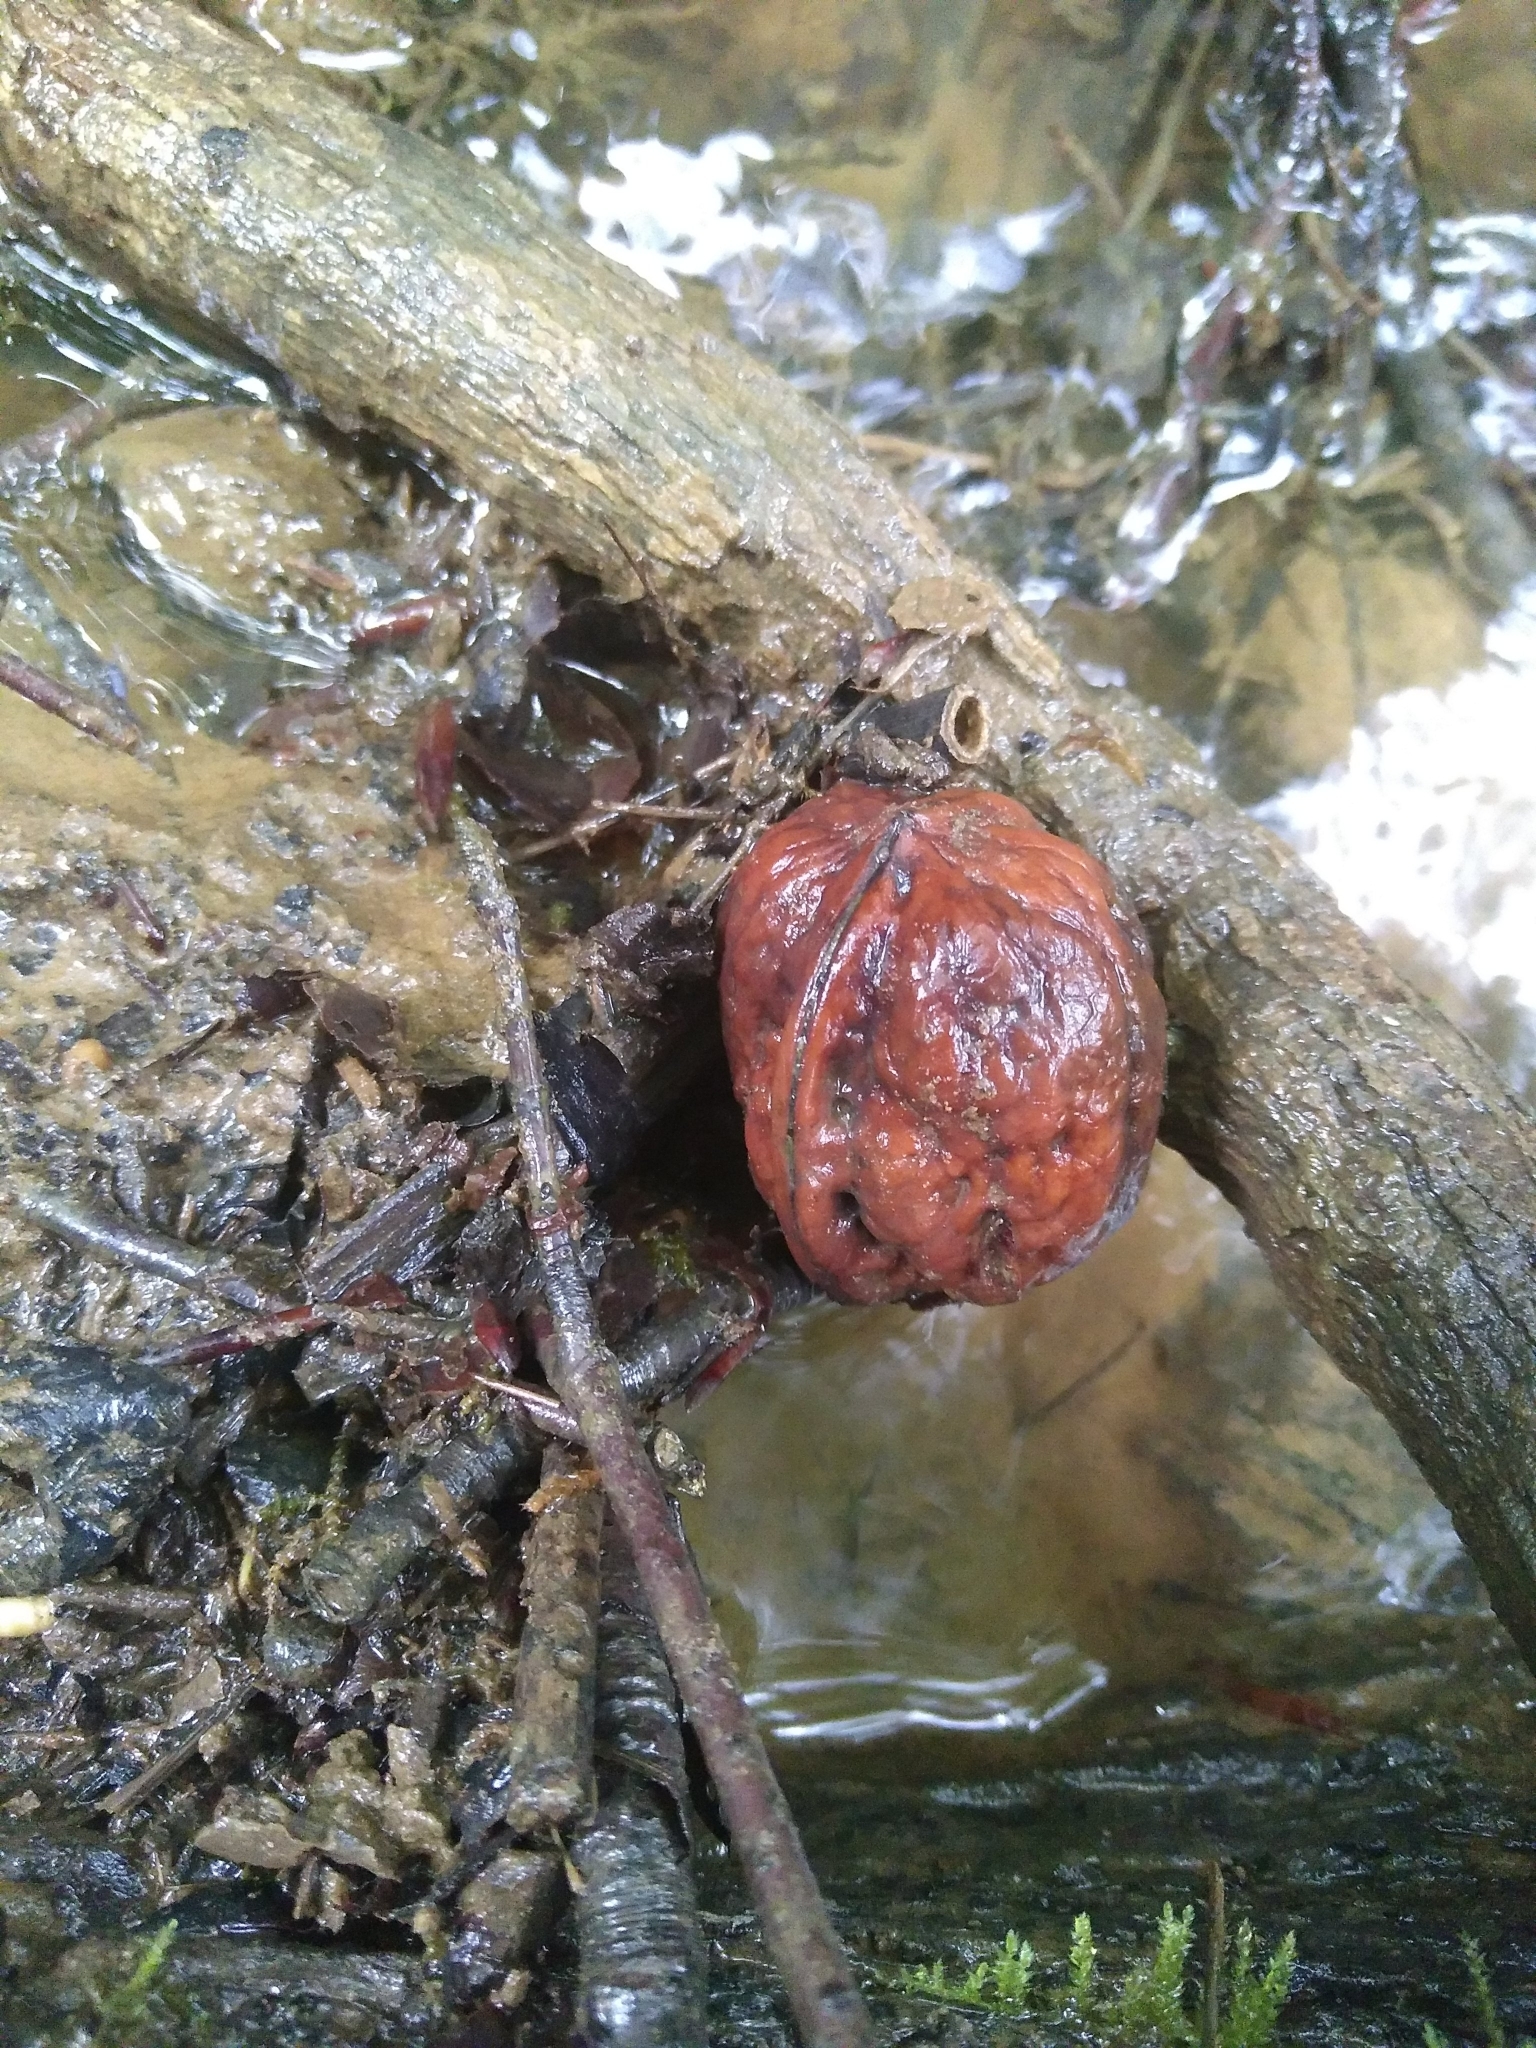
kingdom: Plantae
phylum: Tracheophyta
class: Magnoliopsida
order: Fagales
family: Juglandaceae
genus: Juglans
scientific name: Juglans regia
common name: Walnut
